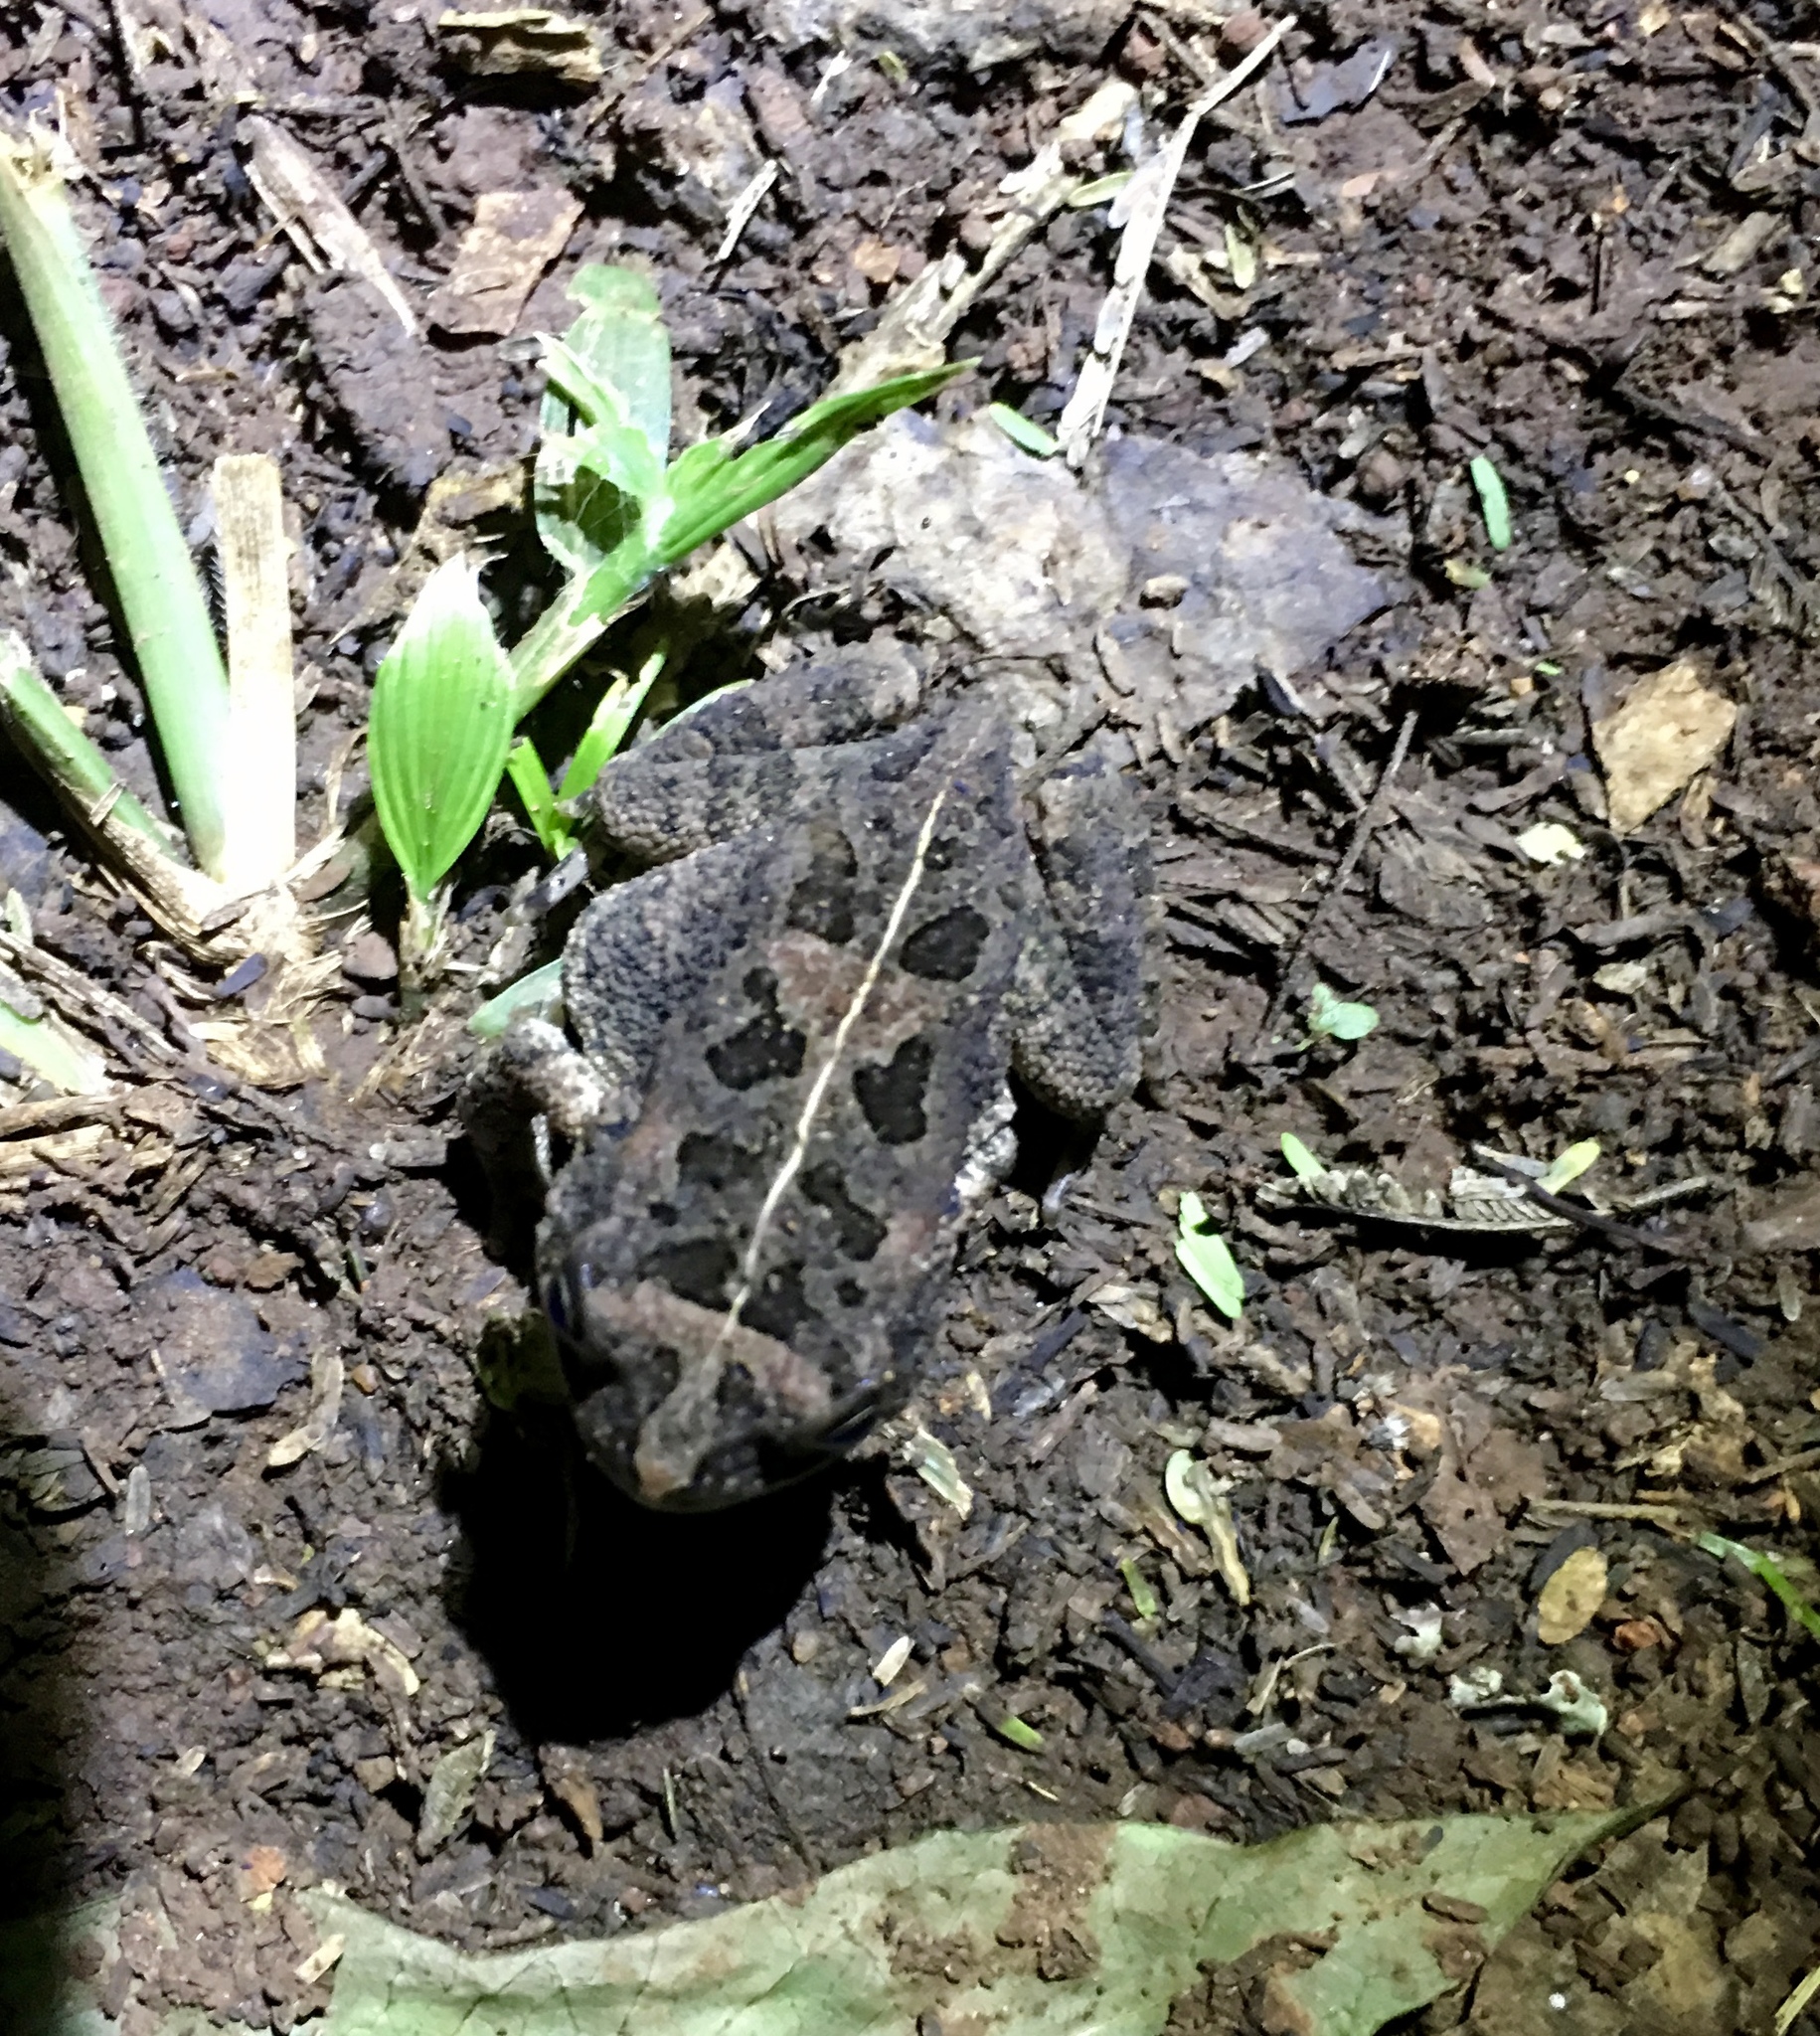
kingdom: Animalia
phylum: Chordata
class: Amphibia
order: Anura
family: Bufonidae
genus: Sclerophrys
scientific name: Sclerophrys gutturalis
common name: African common toad
